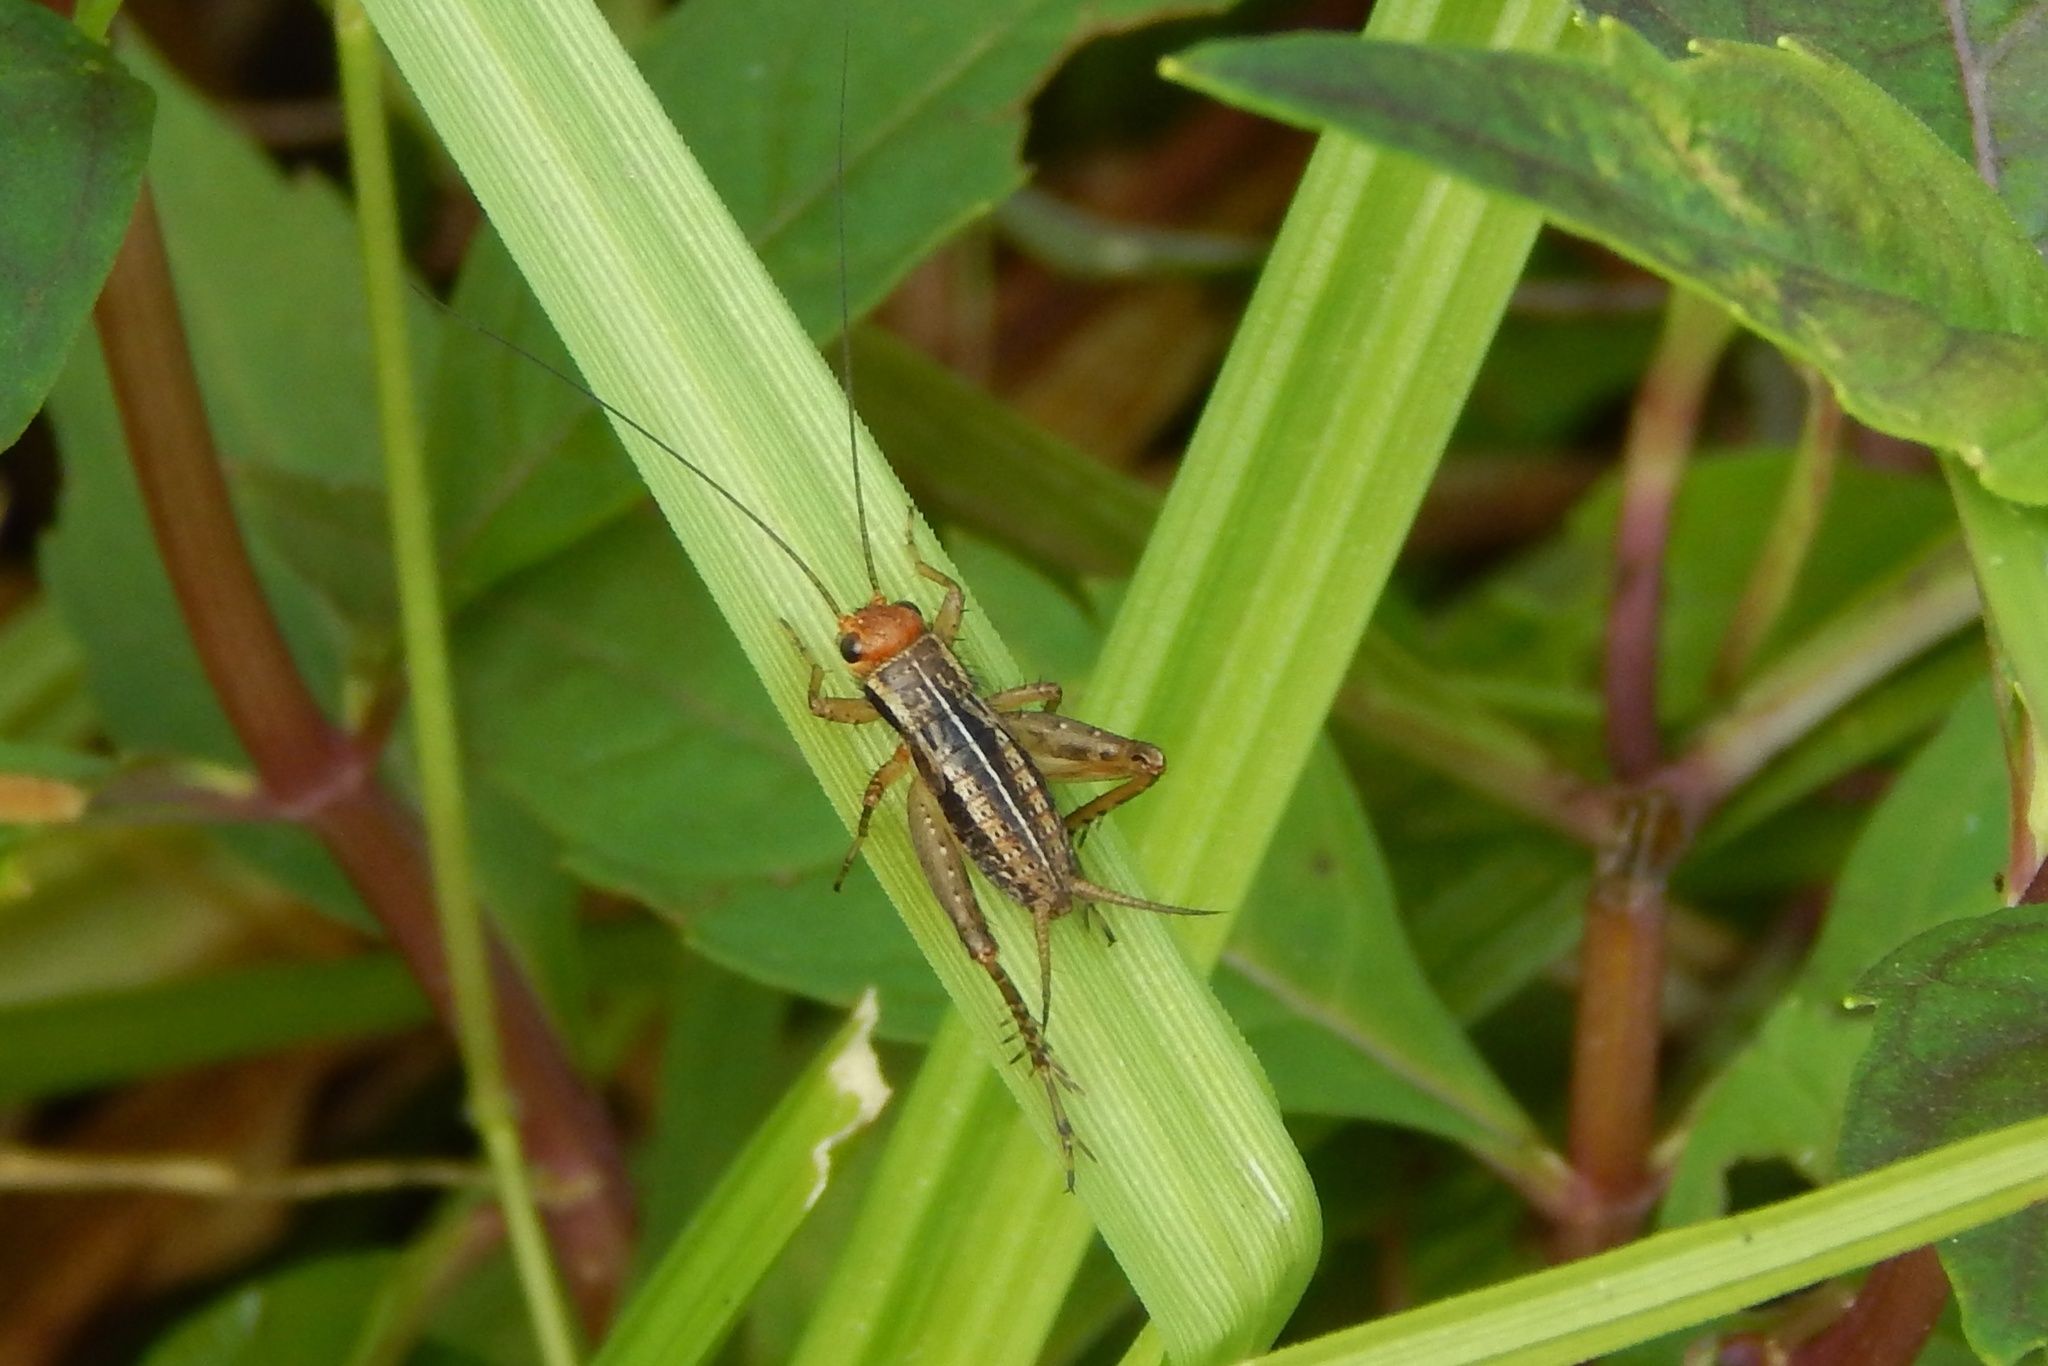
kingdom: Animalia
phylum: Arthropoda
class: Insecta
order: Orthoptera
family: Trigonidiidae
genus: Allonemobius
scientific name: Allonemobius
